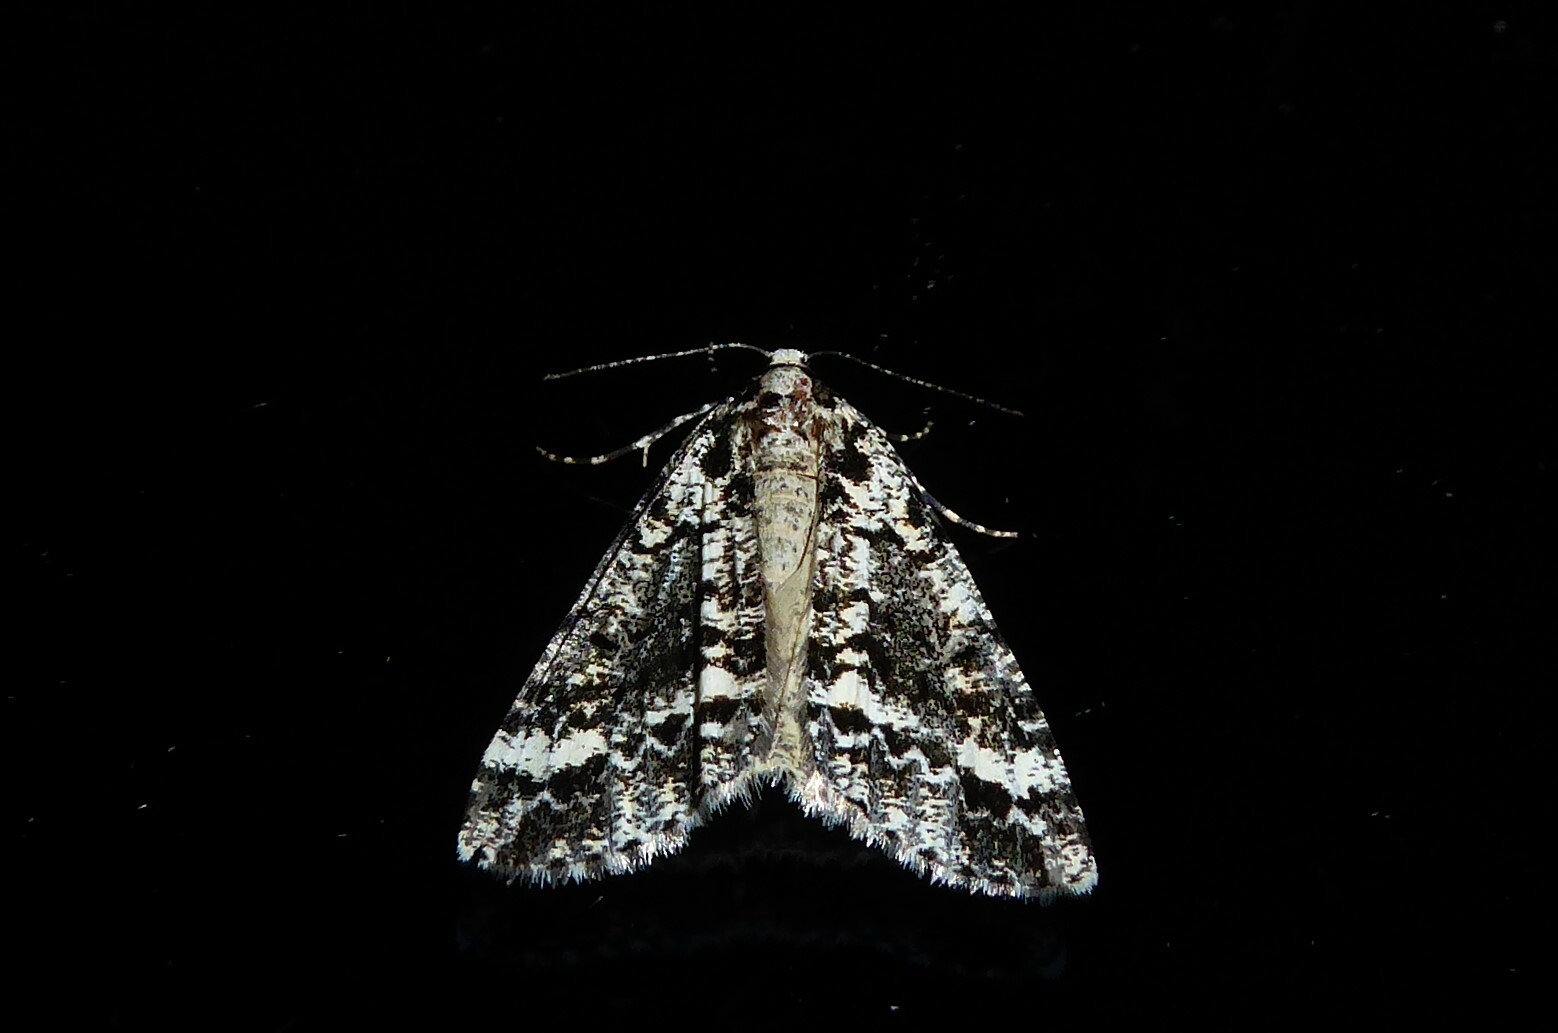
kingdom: Animalia
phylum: Arthropoda
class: Insecta
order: Lepidoptera
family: Geometridae
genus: Pseudocoremia
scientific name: Pseudocoremia leucelaea
